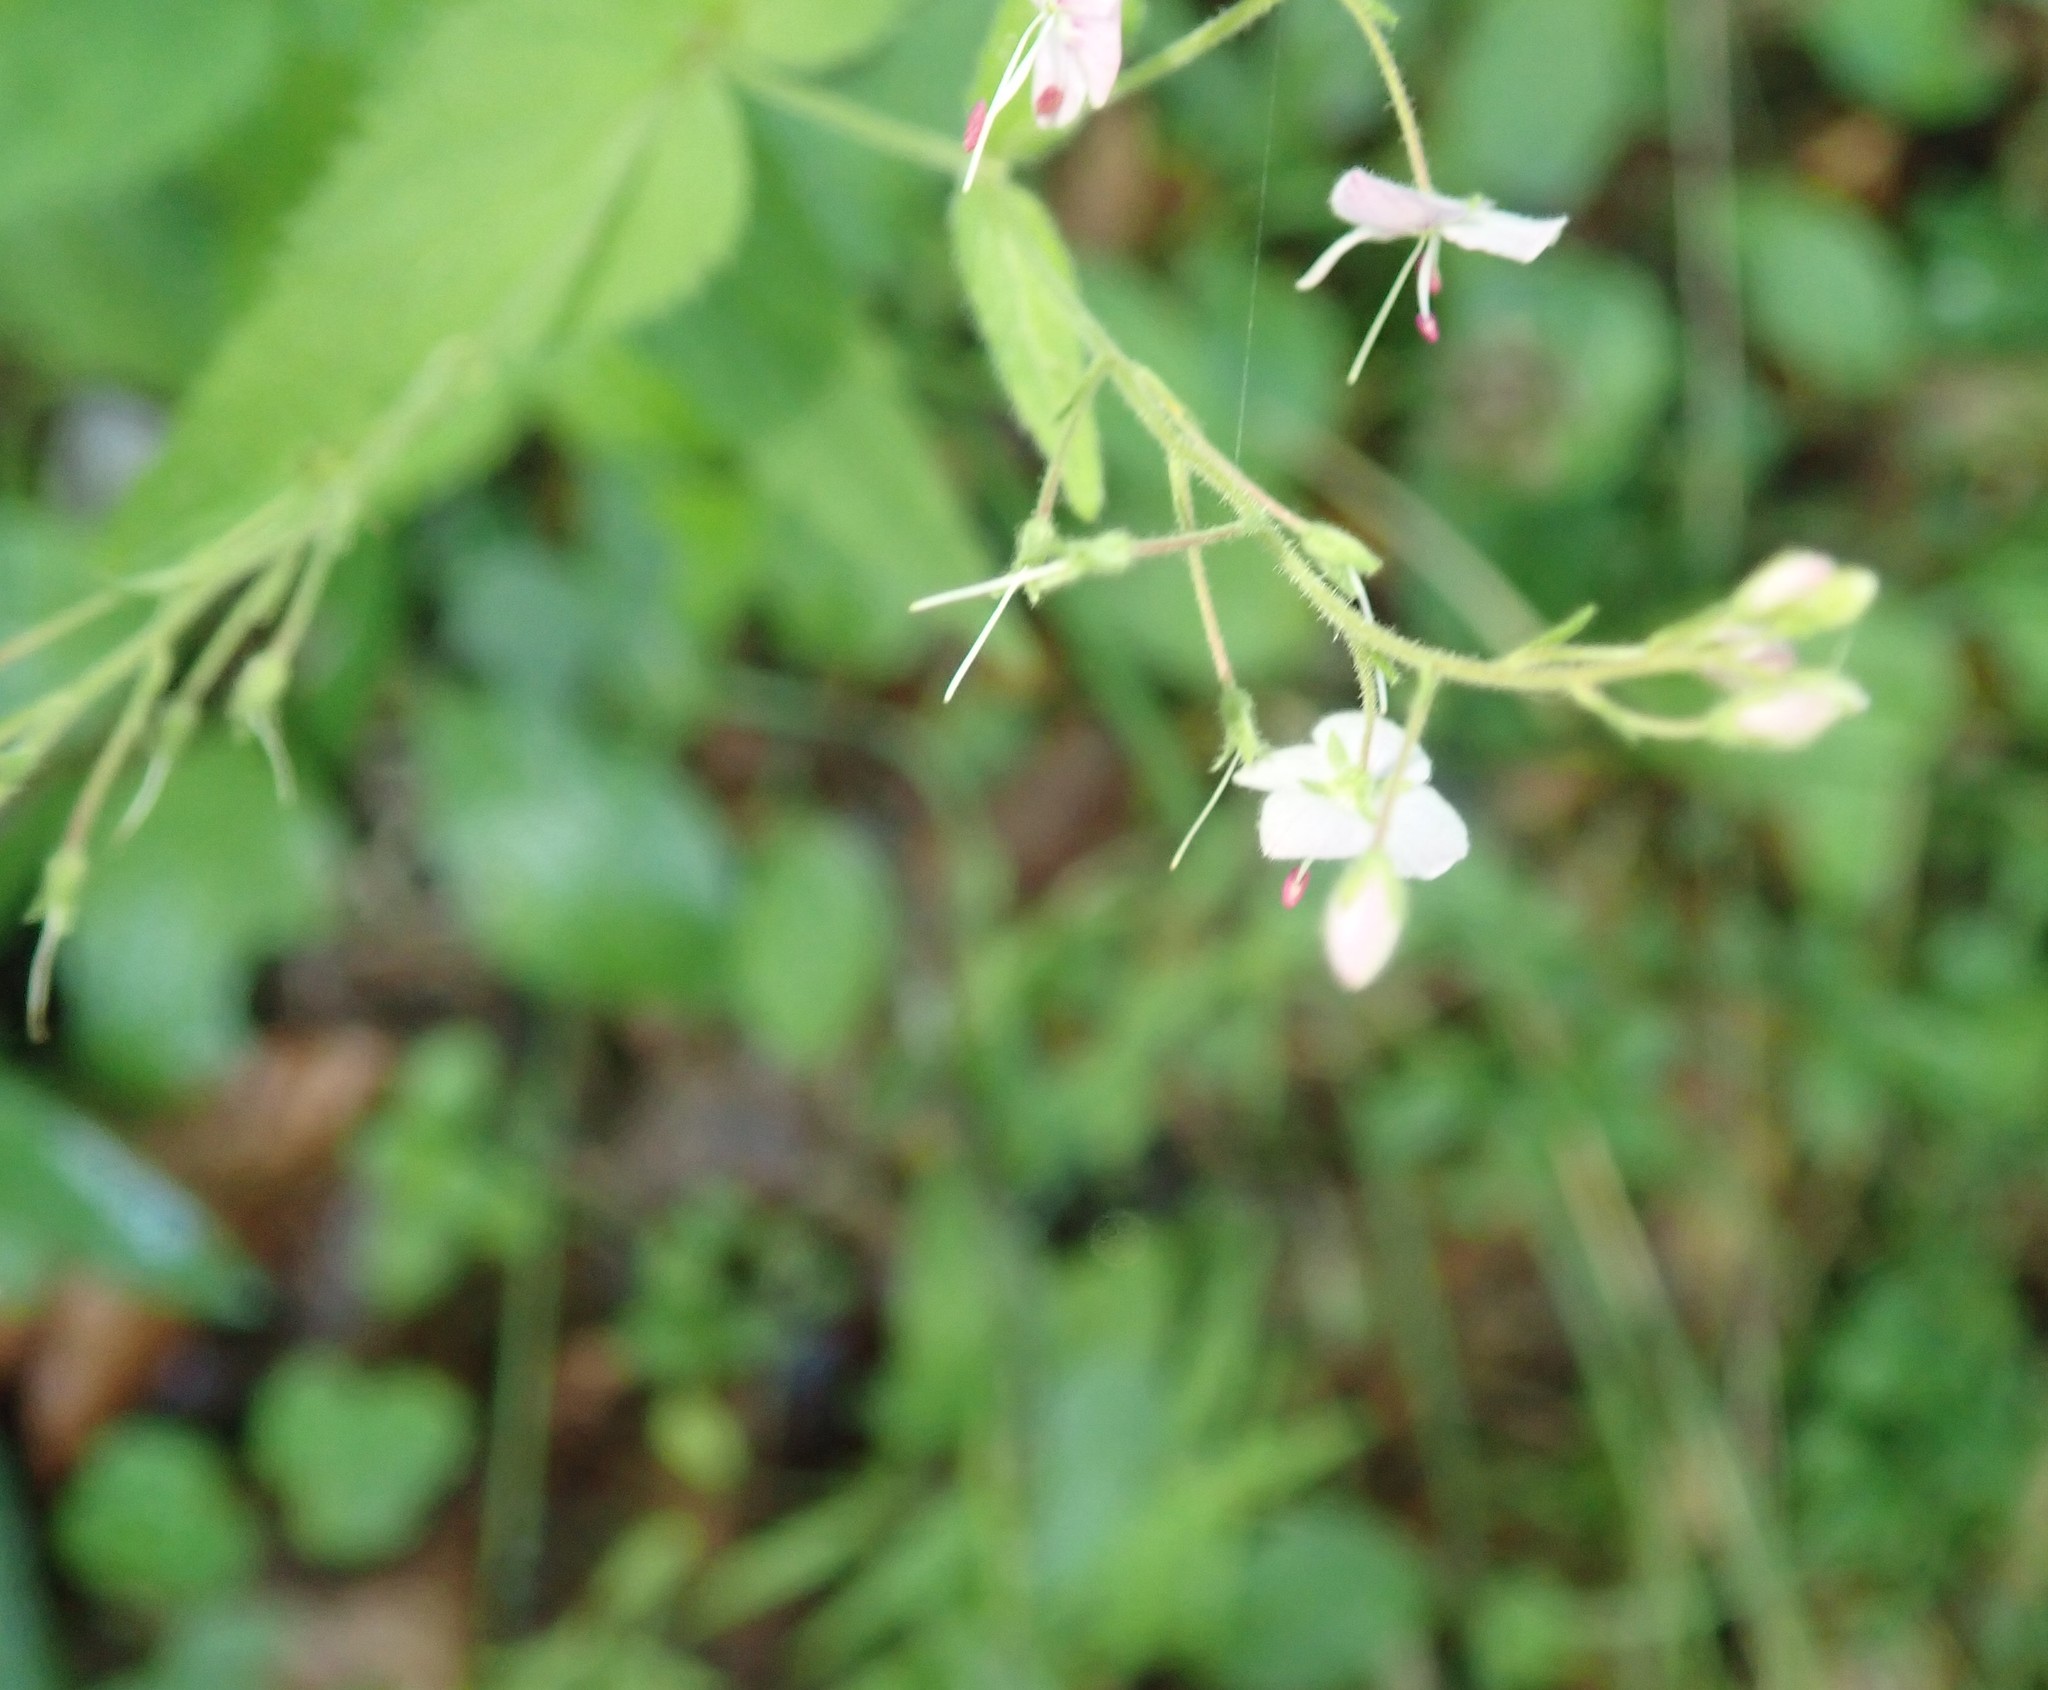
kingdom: Plantae
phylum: Tracheophyta
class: Magnoliopsida
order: Lamiales
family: Plantaginaceae
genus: Veronica
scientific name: Veronica urticifolia
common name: Nettle-leaf speedwell
